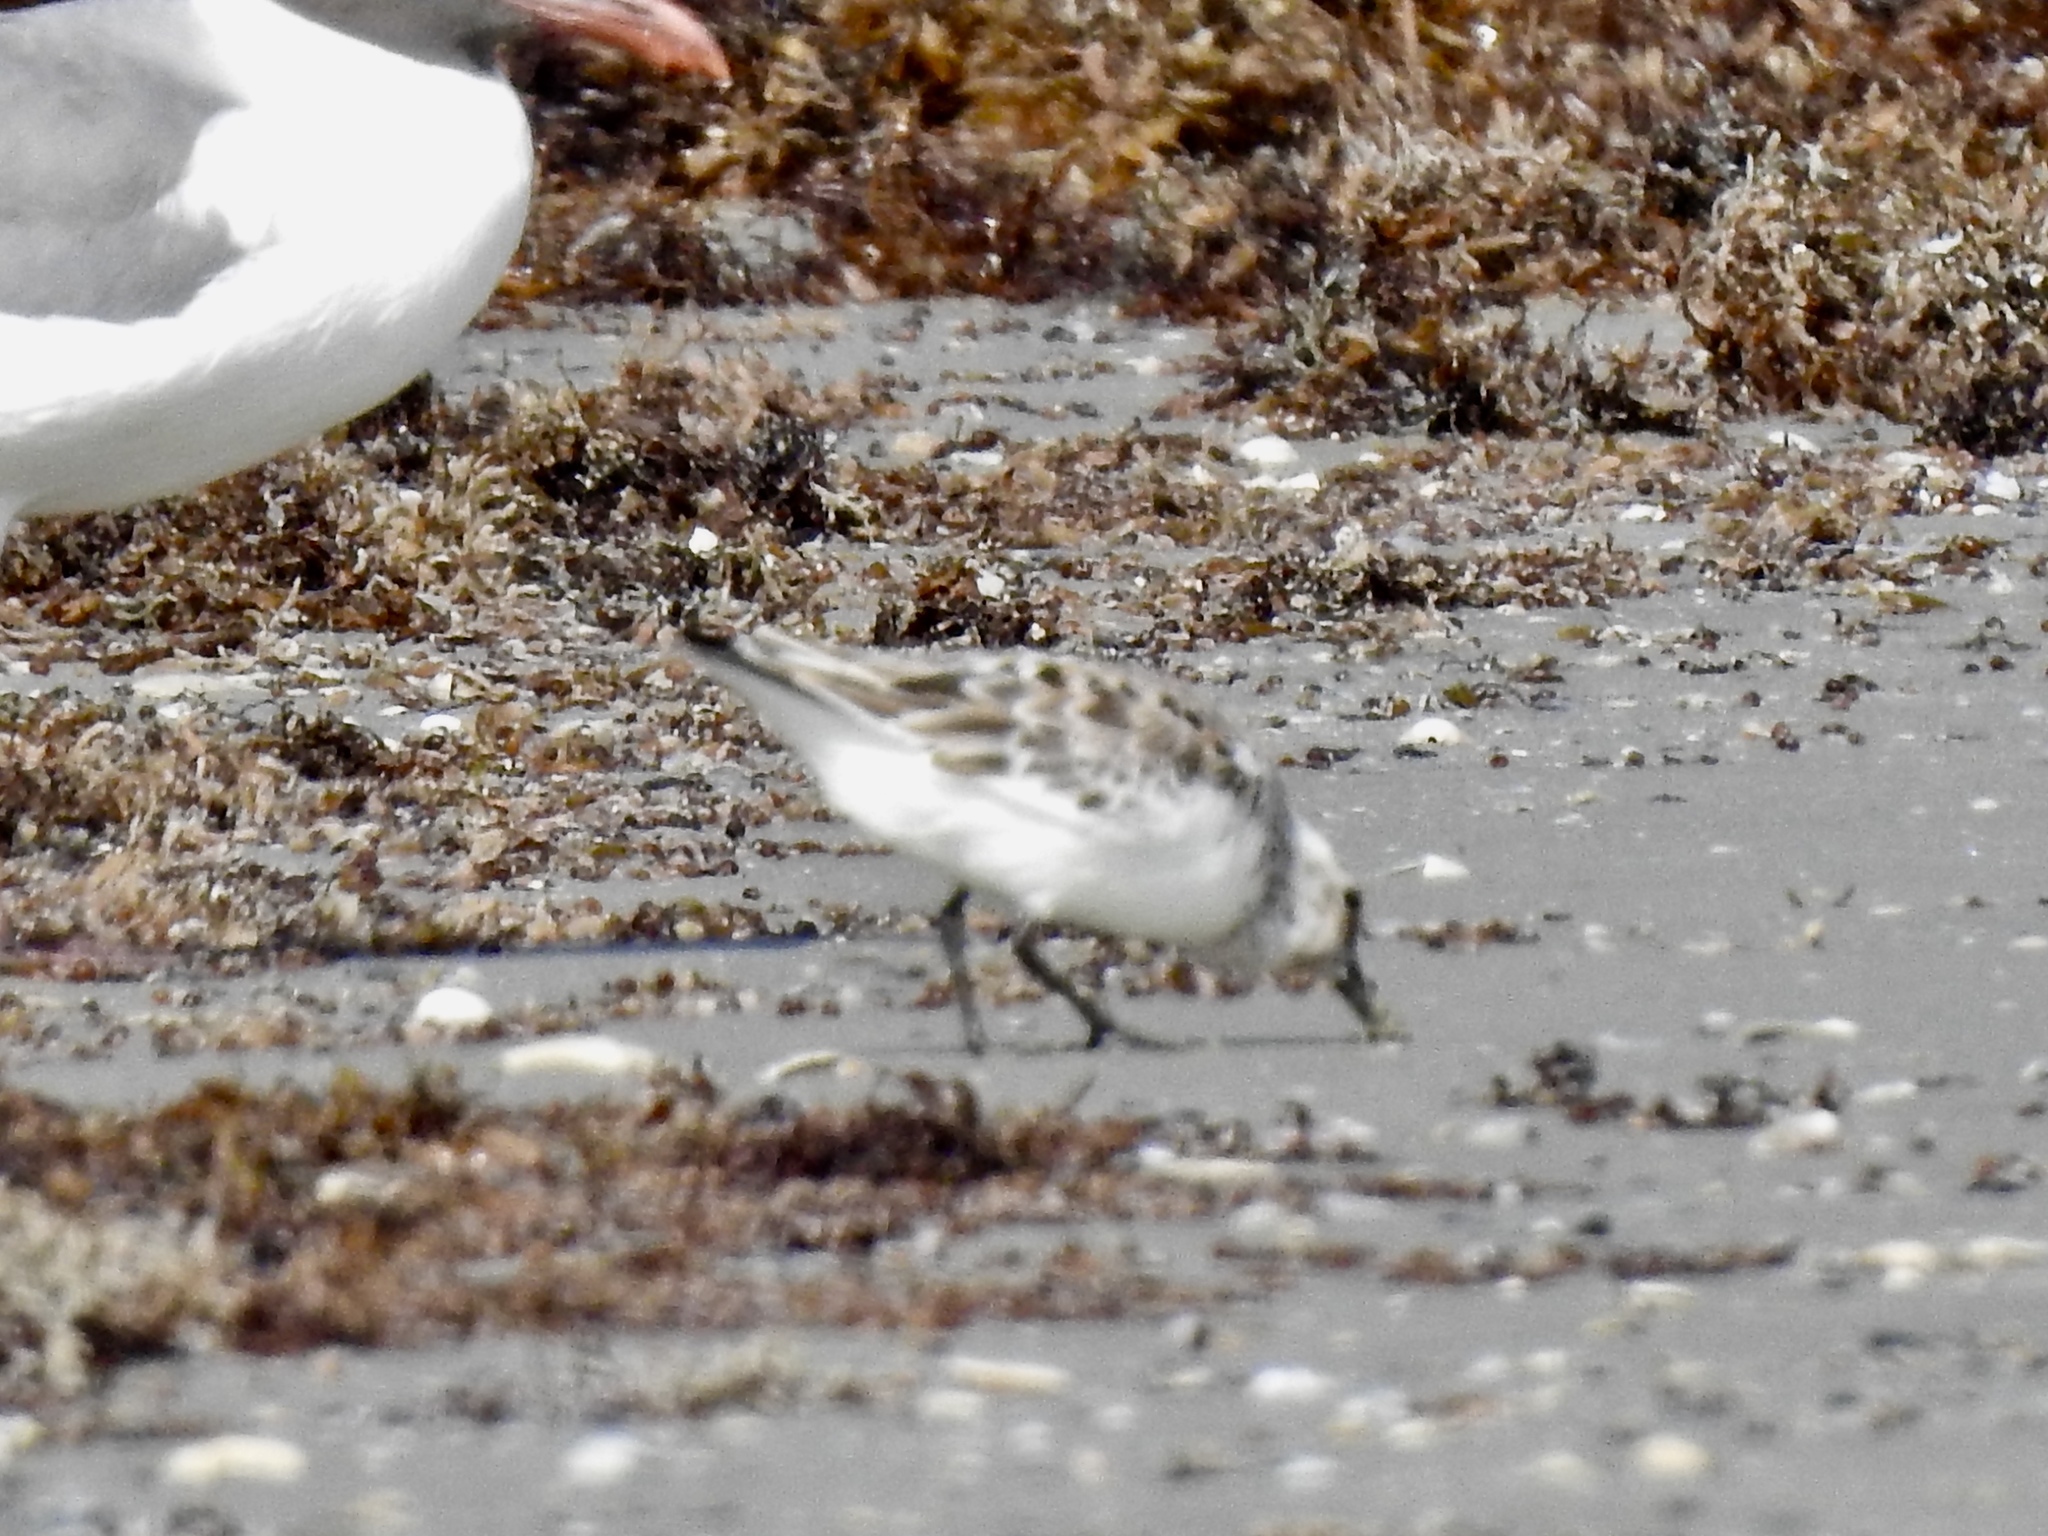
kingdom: Animalia
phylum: Chordata
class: Aves
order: Charadriiformes
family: Scolopacidae
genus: Calidris
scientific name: Calidris alba
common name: Sanderling
